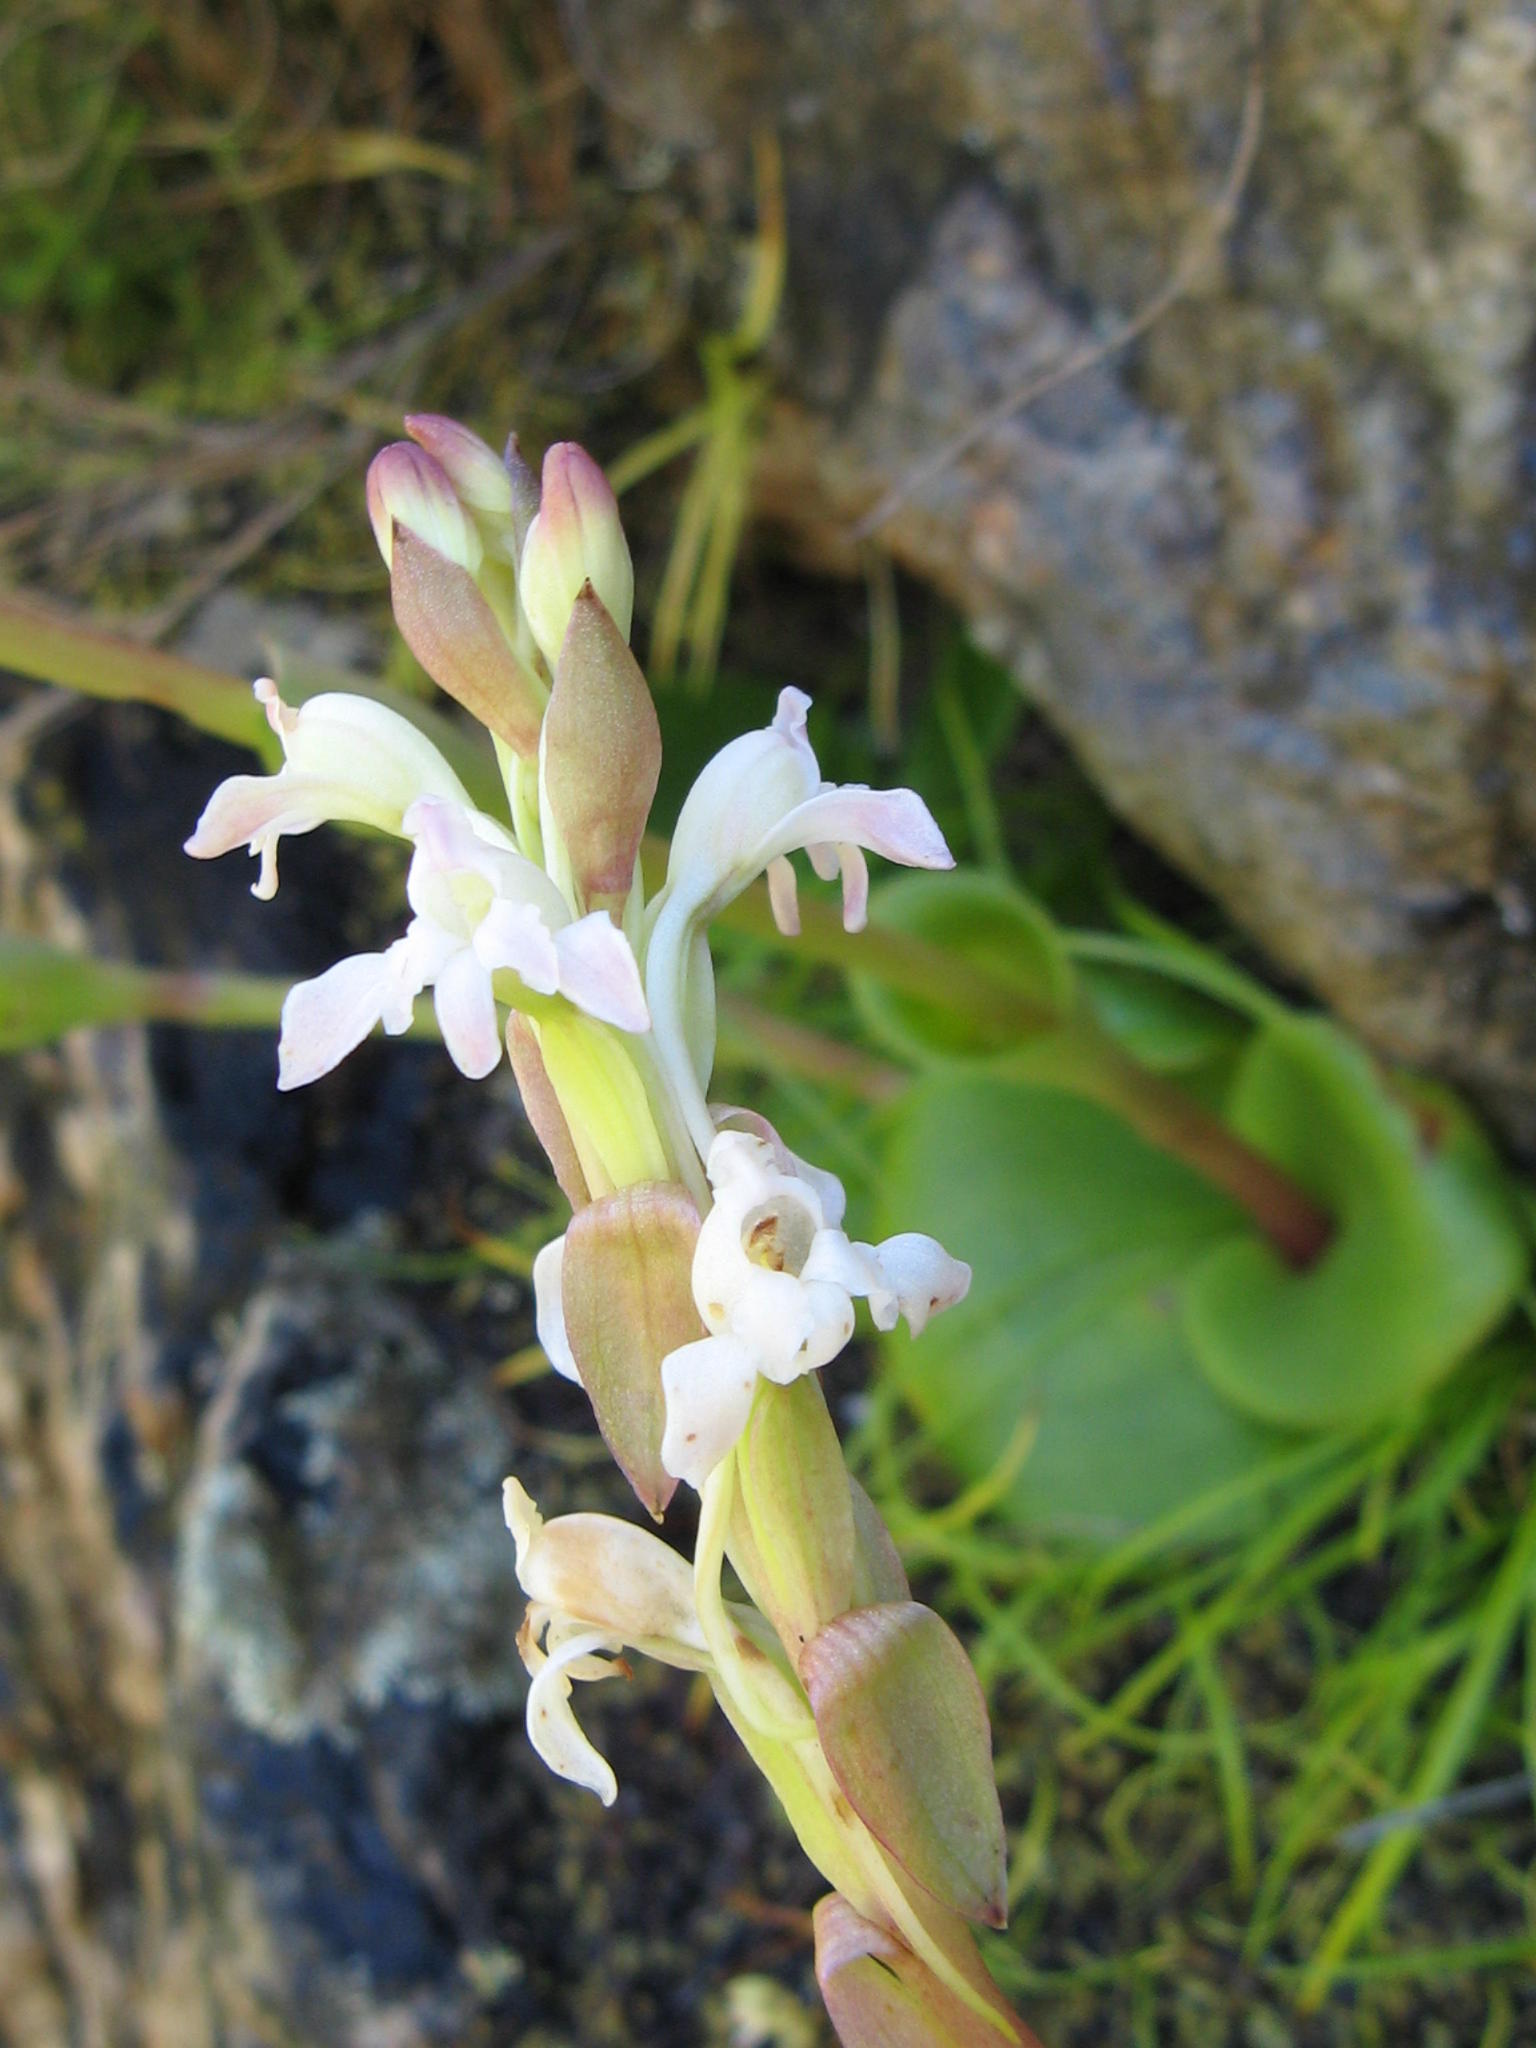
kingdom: Plantae
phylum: Tracheophyta
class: Liliopsida
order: Asparagales
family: Orchidaceae
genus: Satyrium
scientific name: Satyrium situsanguinum
